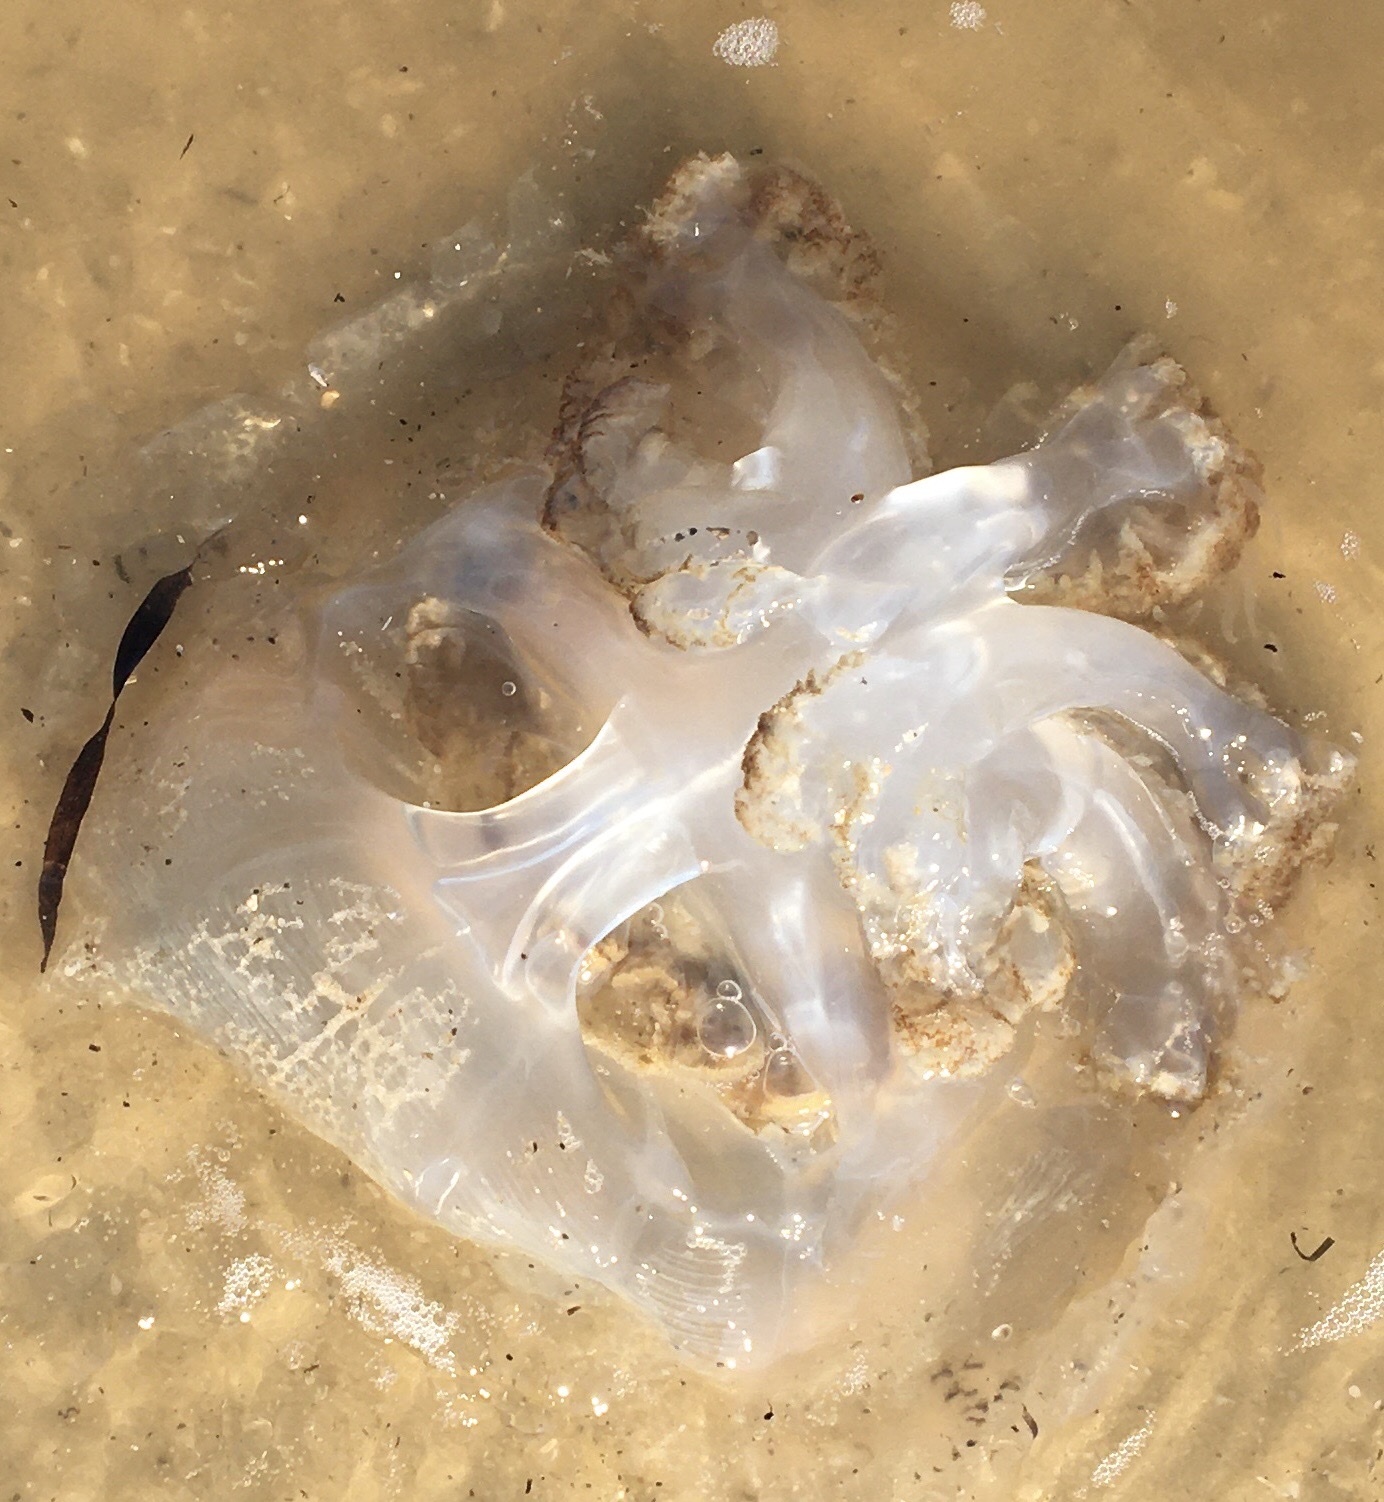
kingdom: Animalia
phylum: Cnidaria
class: Scyphozoa
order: Rhizostomeae
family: Rhizostomatidae
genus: Rhopilema
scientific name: Rhopilema verrilli
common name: Mushroom cap jellyfish
